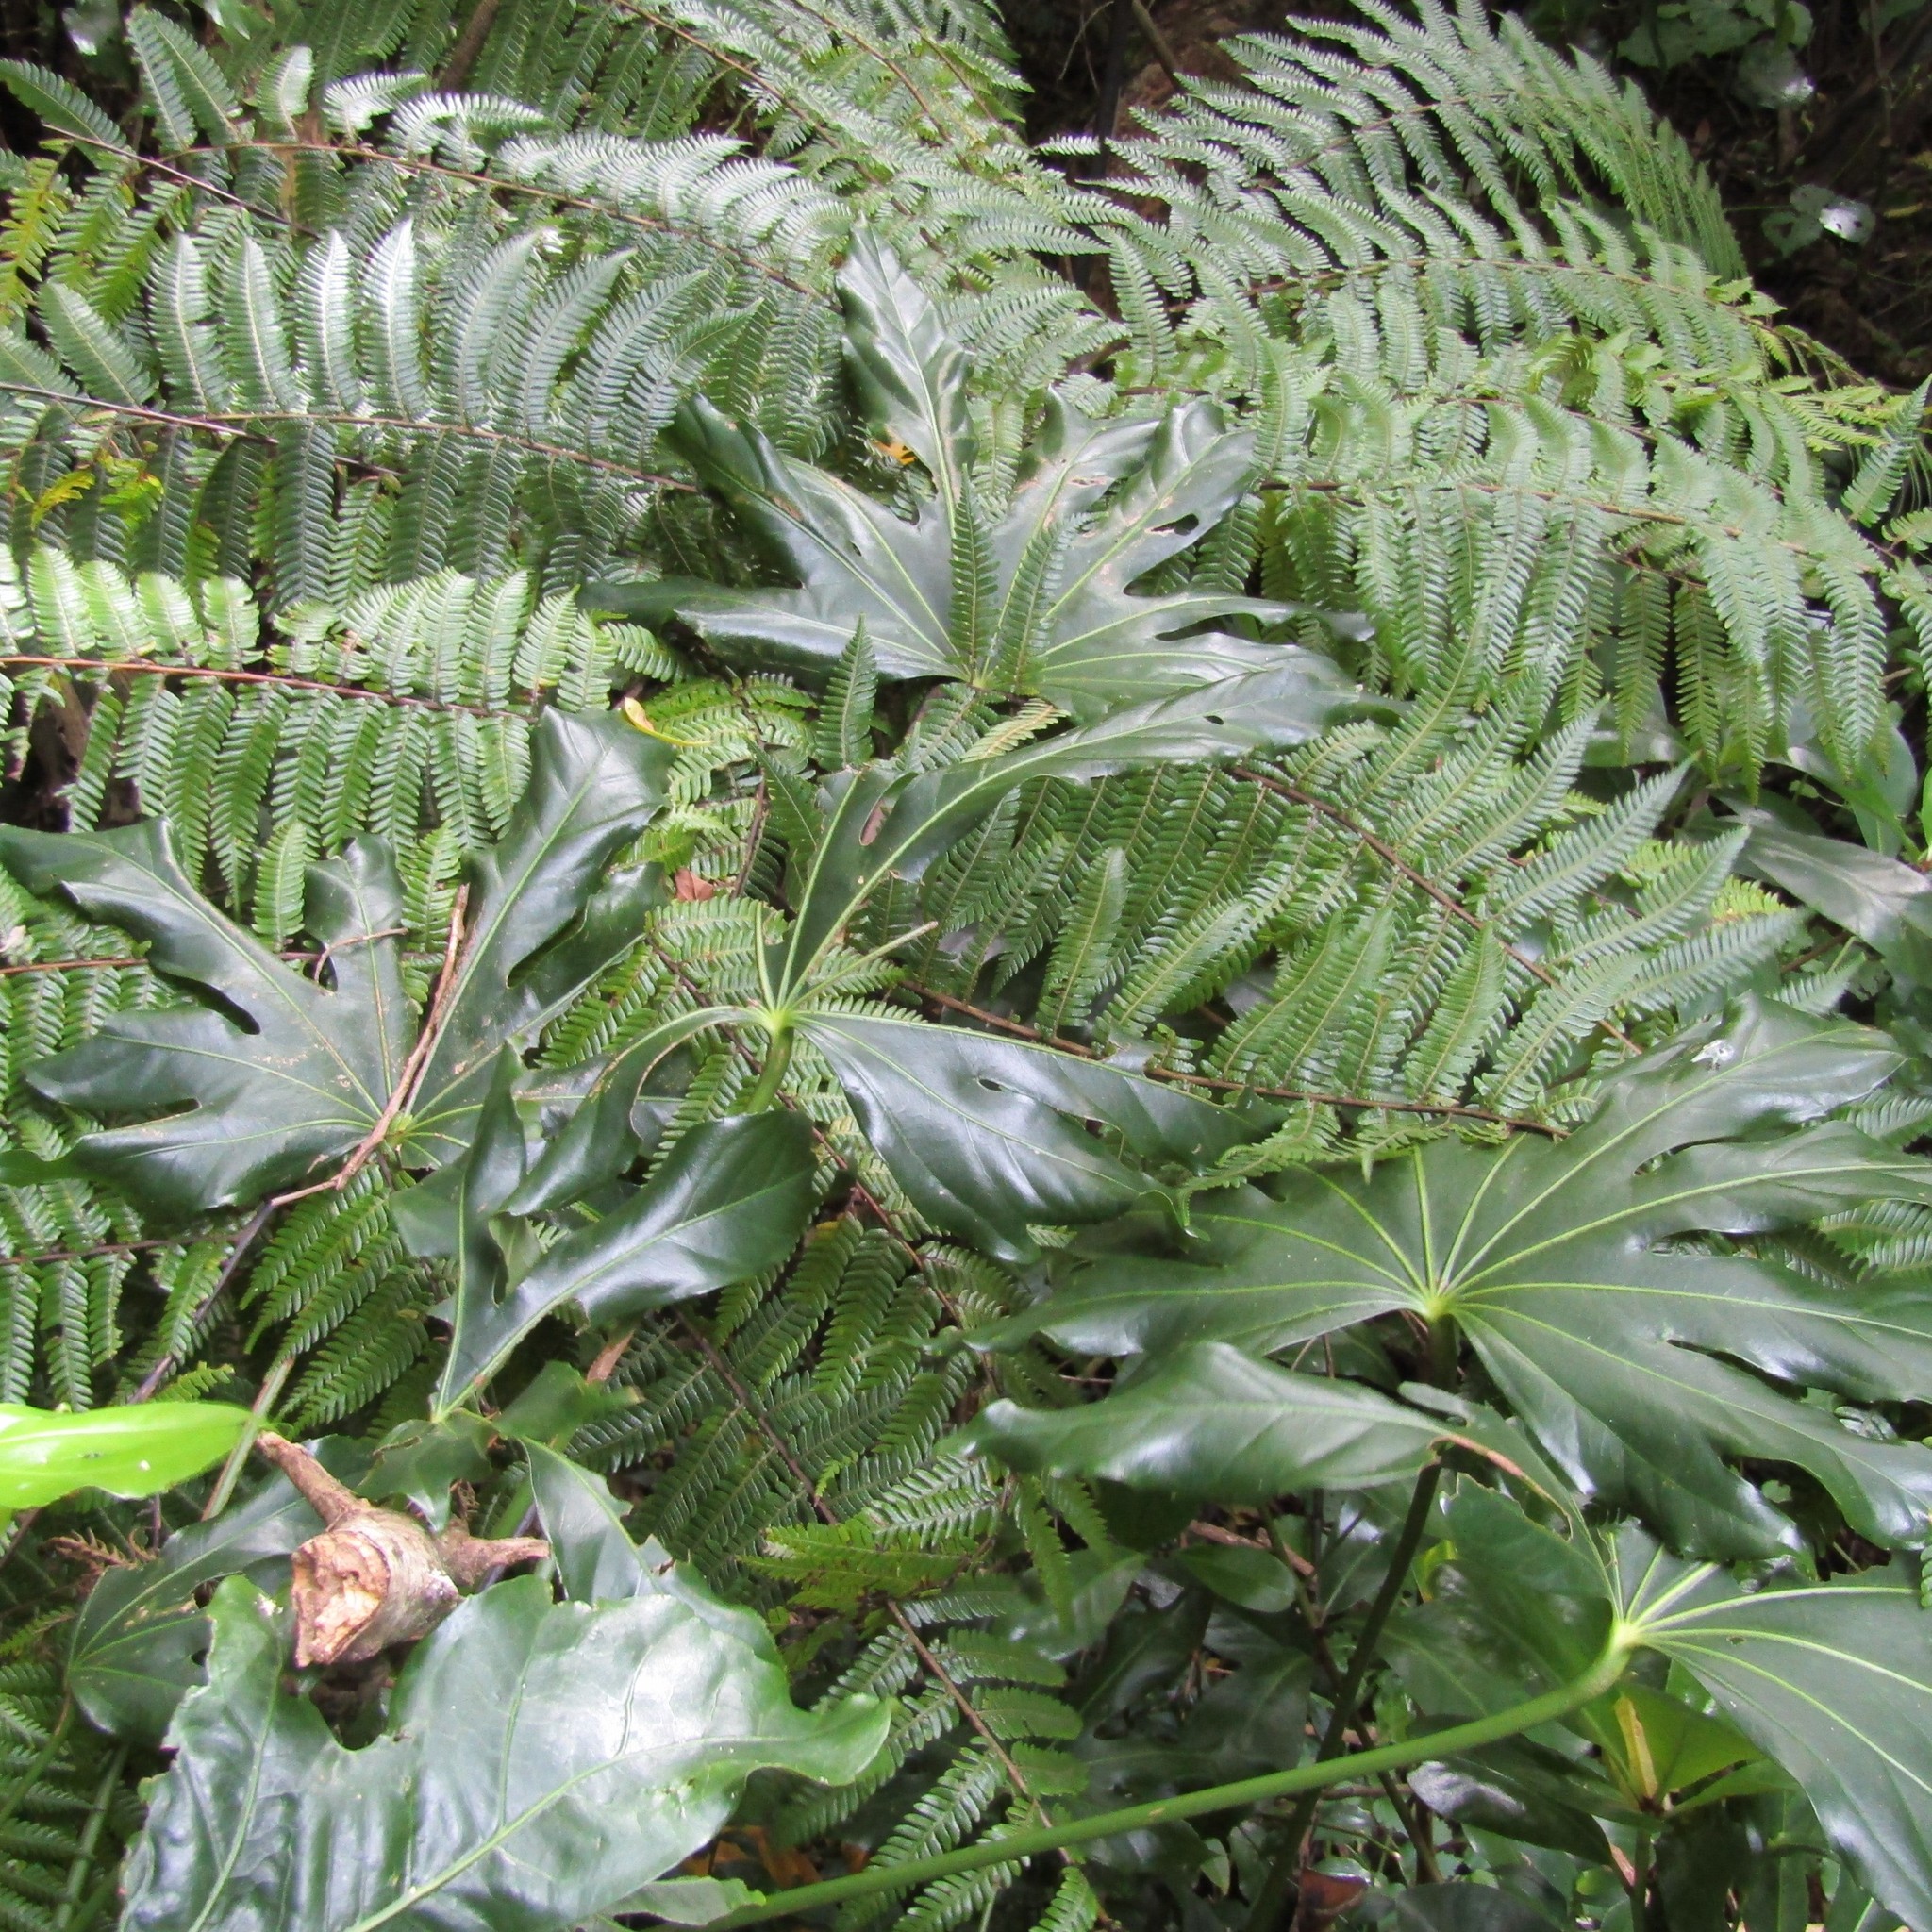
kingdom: Plantae
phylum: Tracheophyta
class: Magnoliopsida
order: Apiales
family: Araliaceae
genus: Fatsia
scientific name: Fatsia japonica
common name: Fatsia
